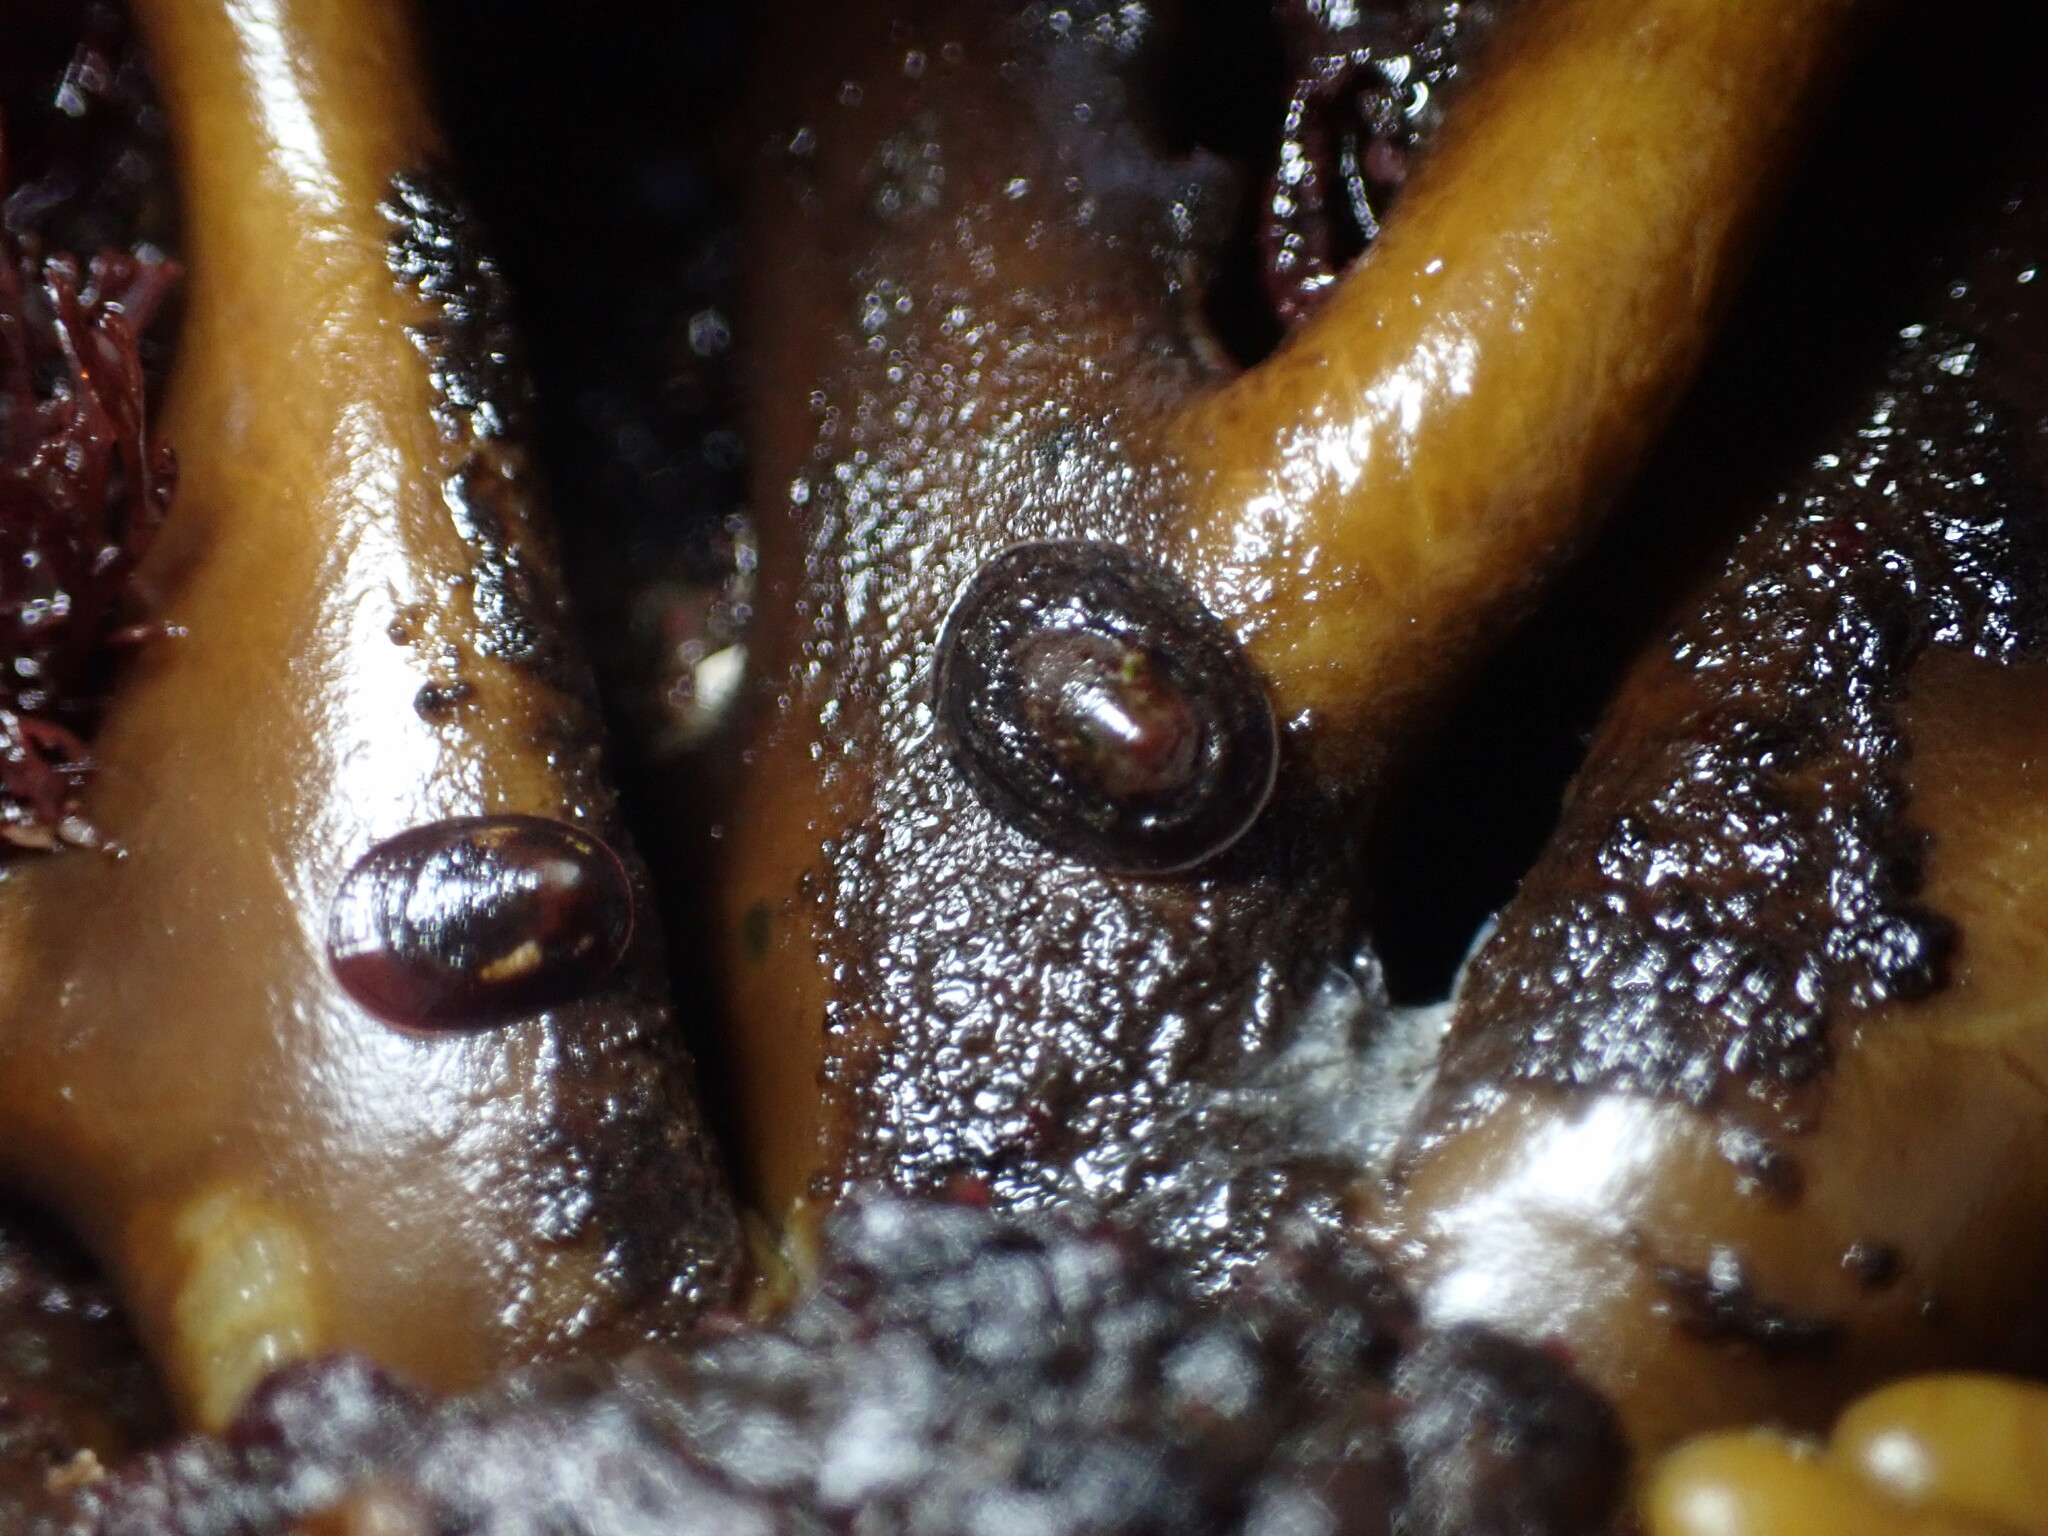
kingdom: Animalia
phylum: Mollusca
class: Gastropoda
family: Lottiidae
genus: Discurria
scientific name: Discurria insessa
